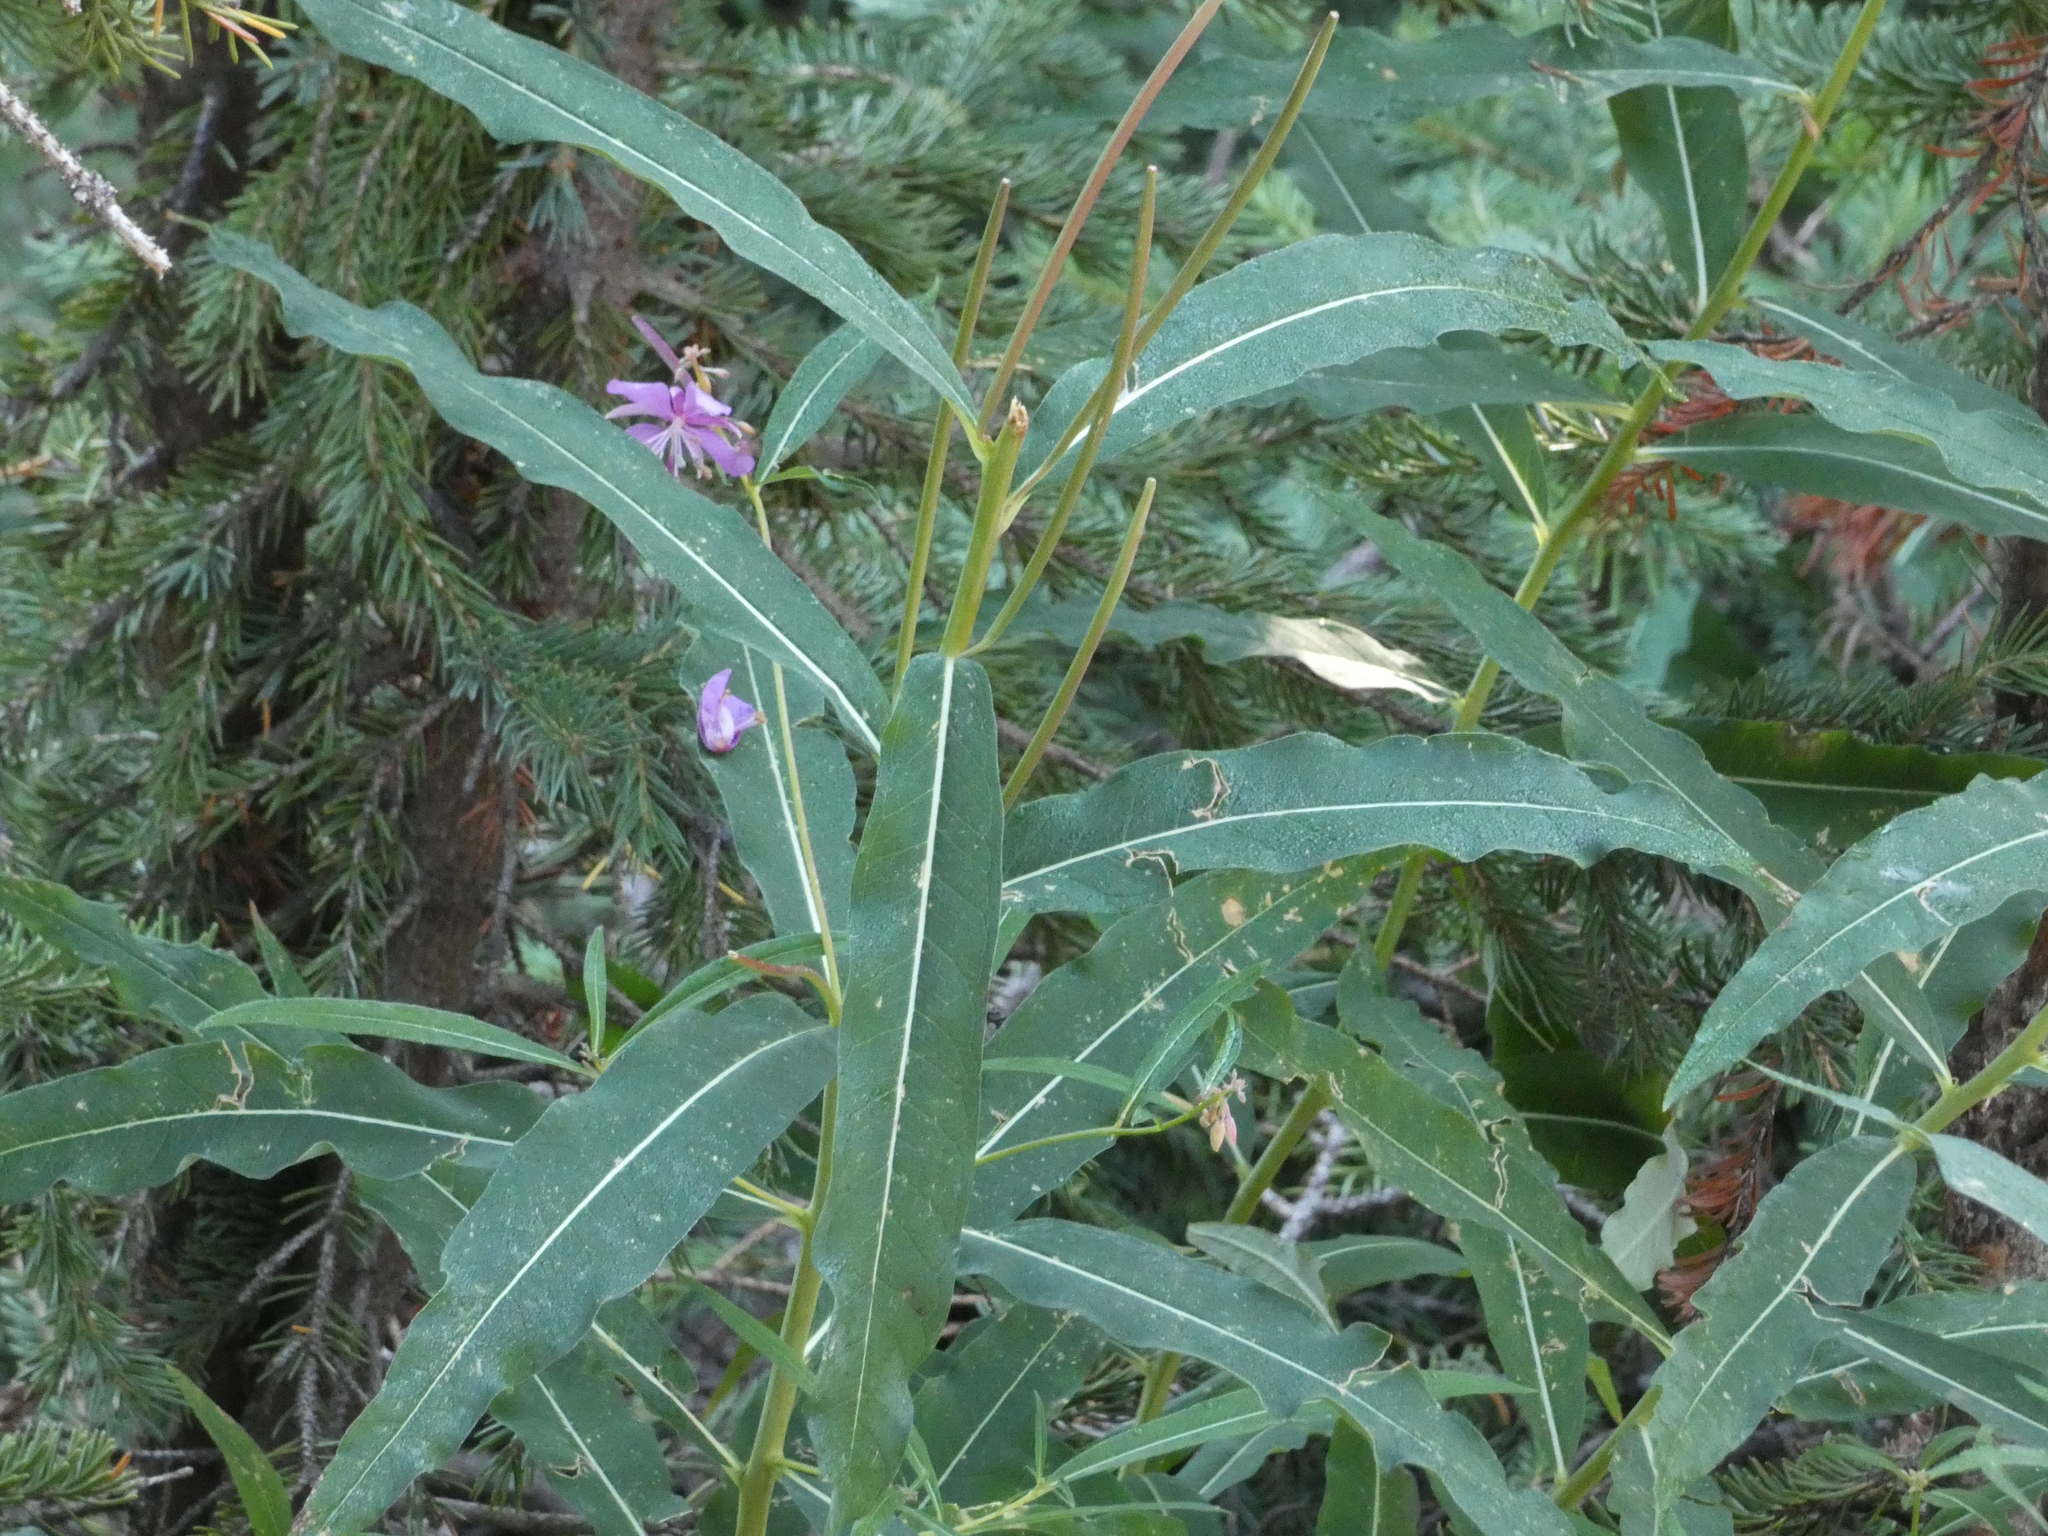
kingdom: Plantae
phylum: Tracheophyta
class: Magnoliopsida
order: Myrtales
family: Onagraceae
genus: Chamaenerion
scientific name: Chamaenerion angustifolium
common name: Fireweed
